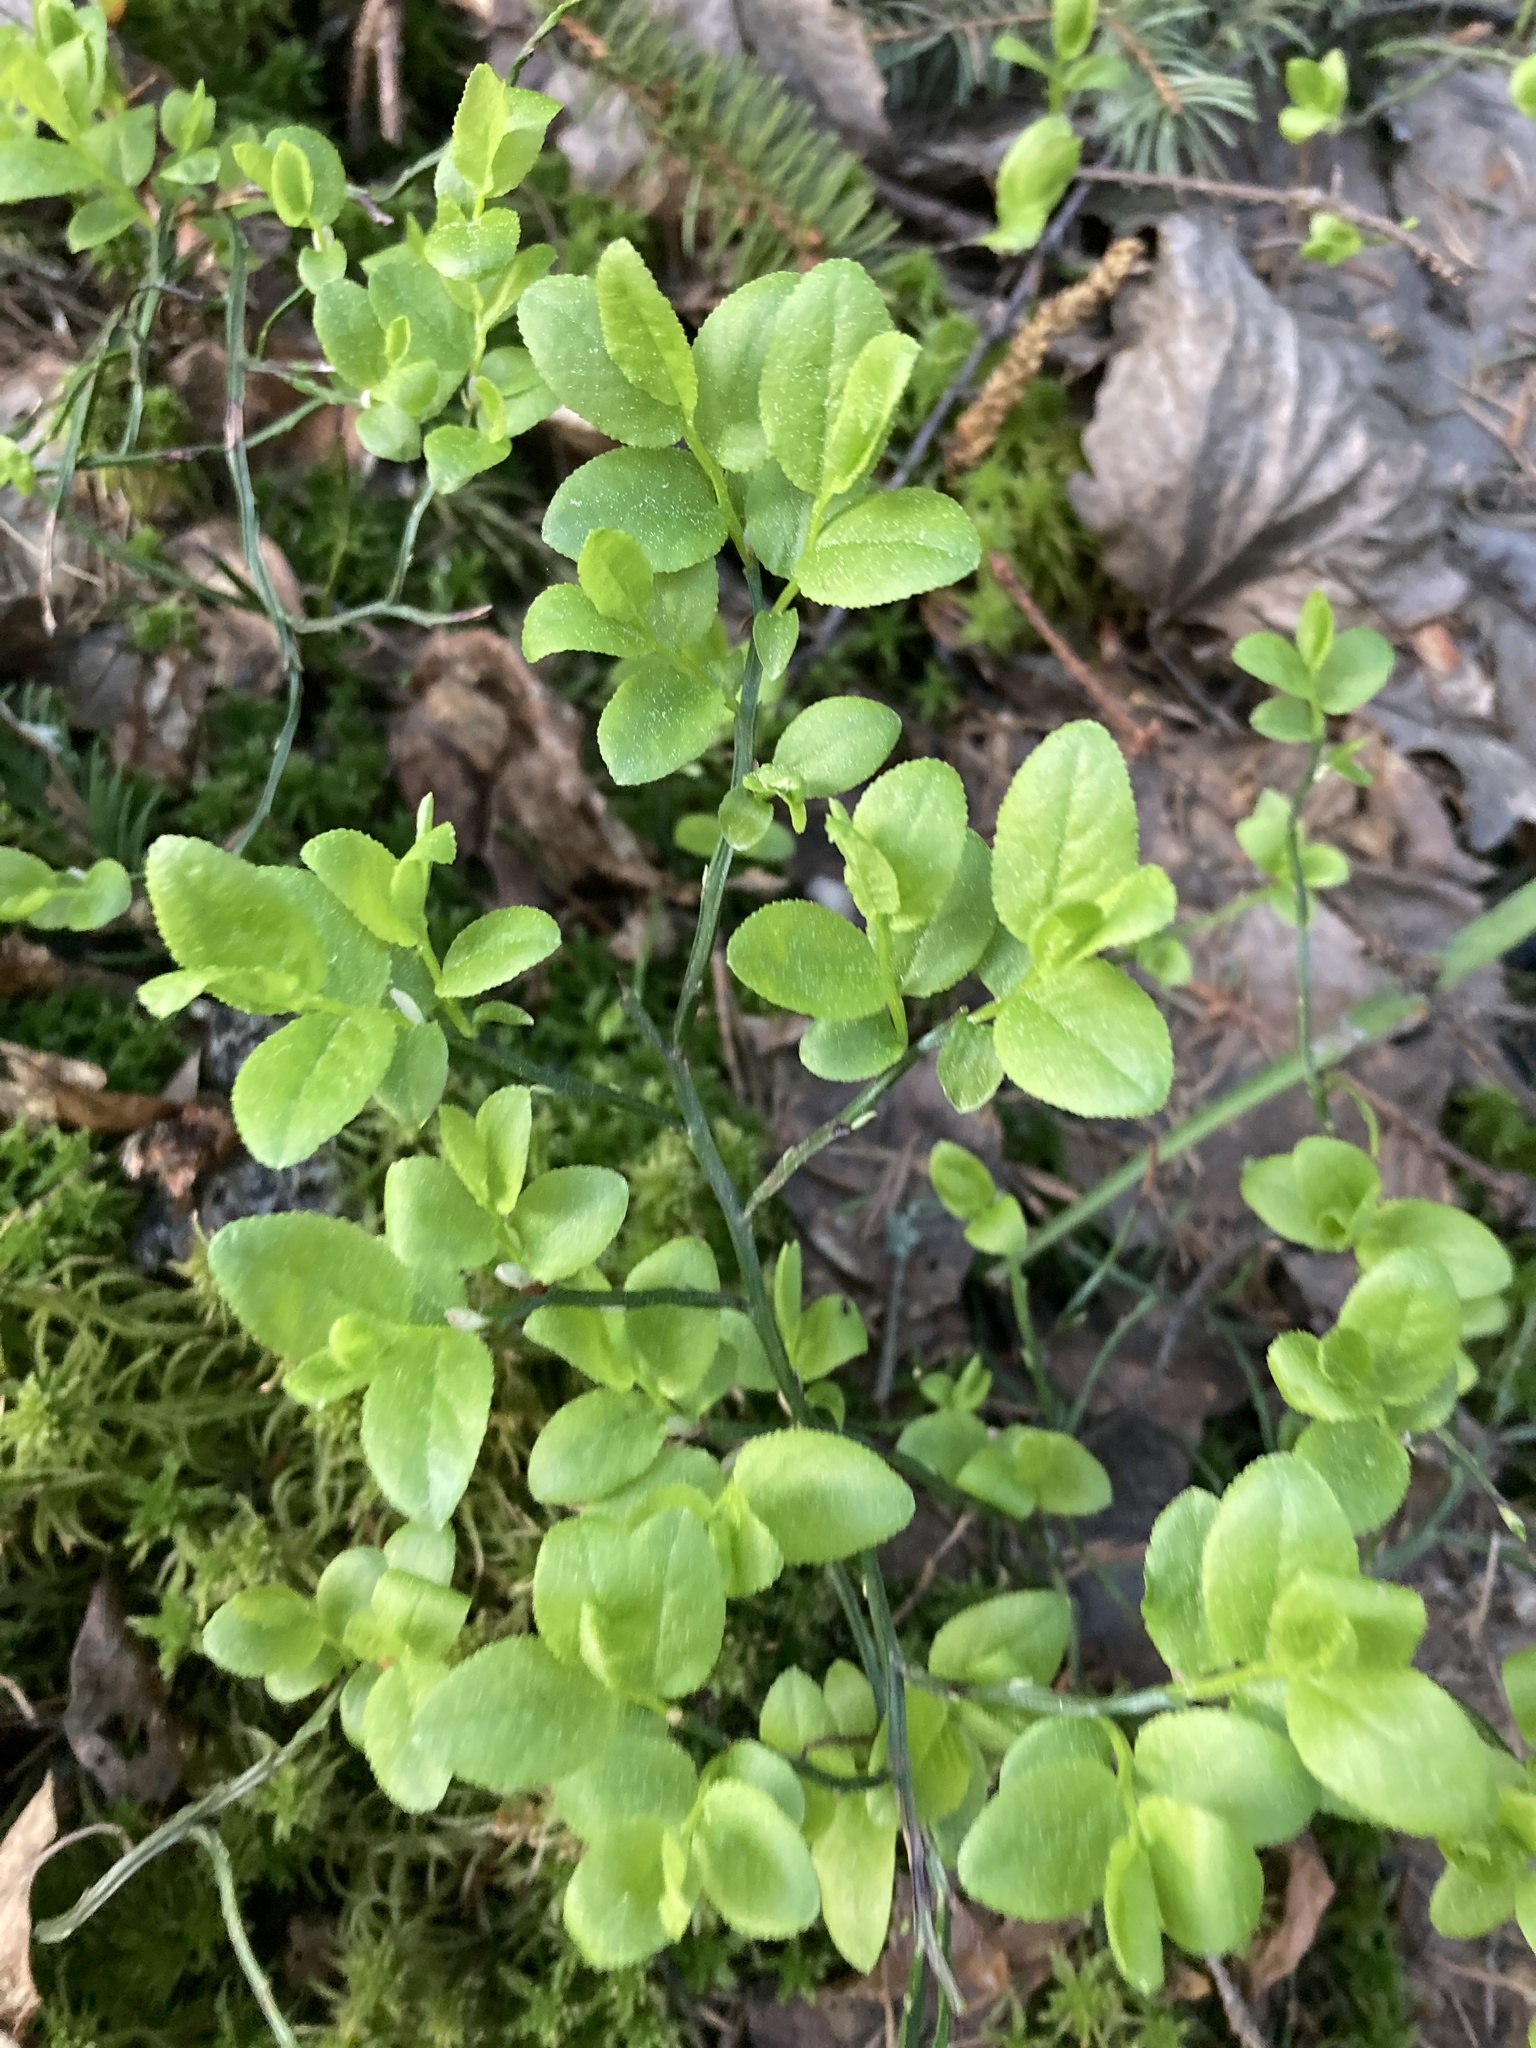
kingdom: Plantae
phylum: Tracheophyta
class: Magnoliopsida
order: Ericales
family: Ericaceae
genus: Vaccinium
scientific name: Vaccinium myrtillus
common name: Bilberry
